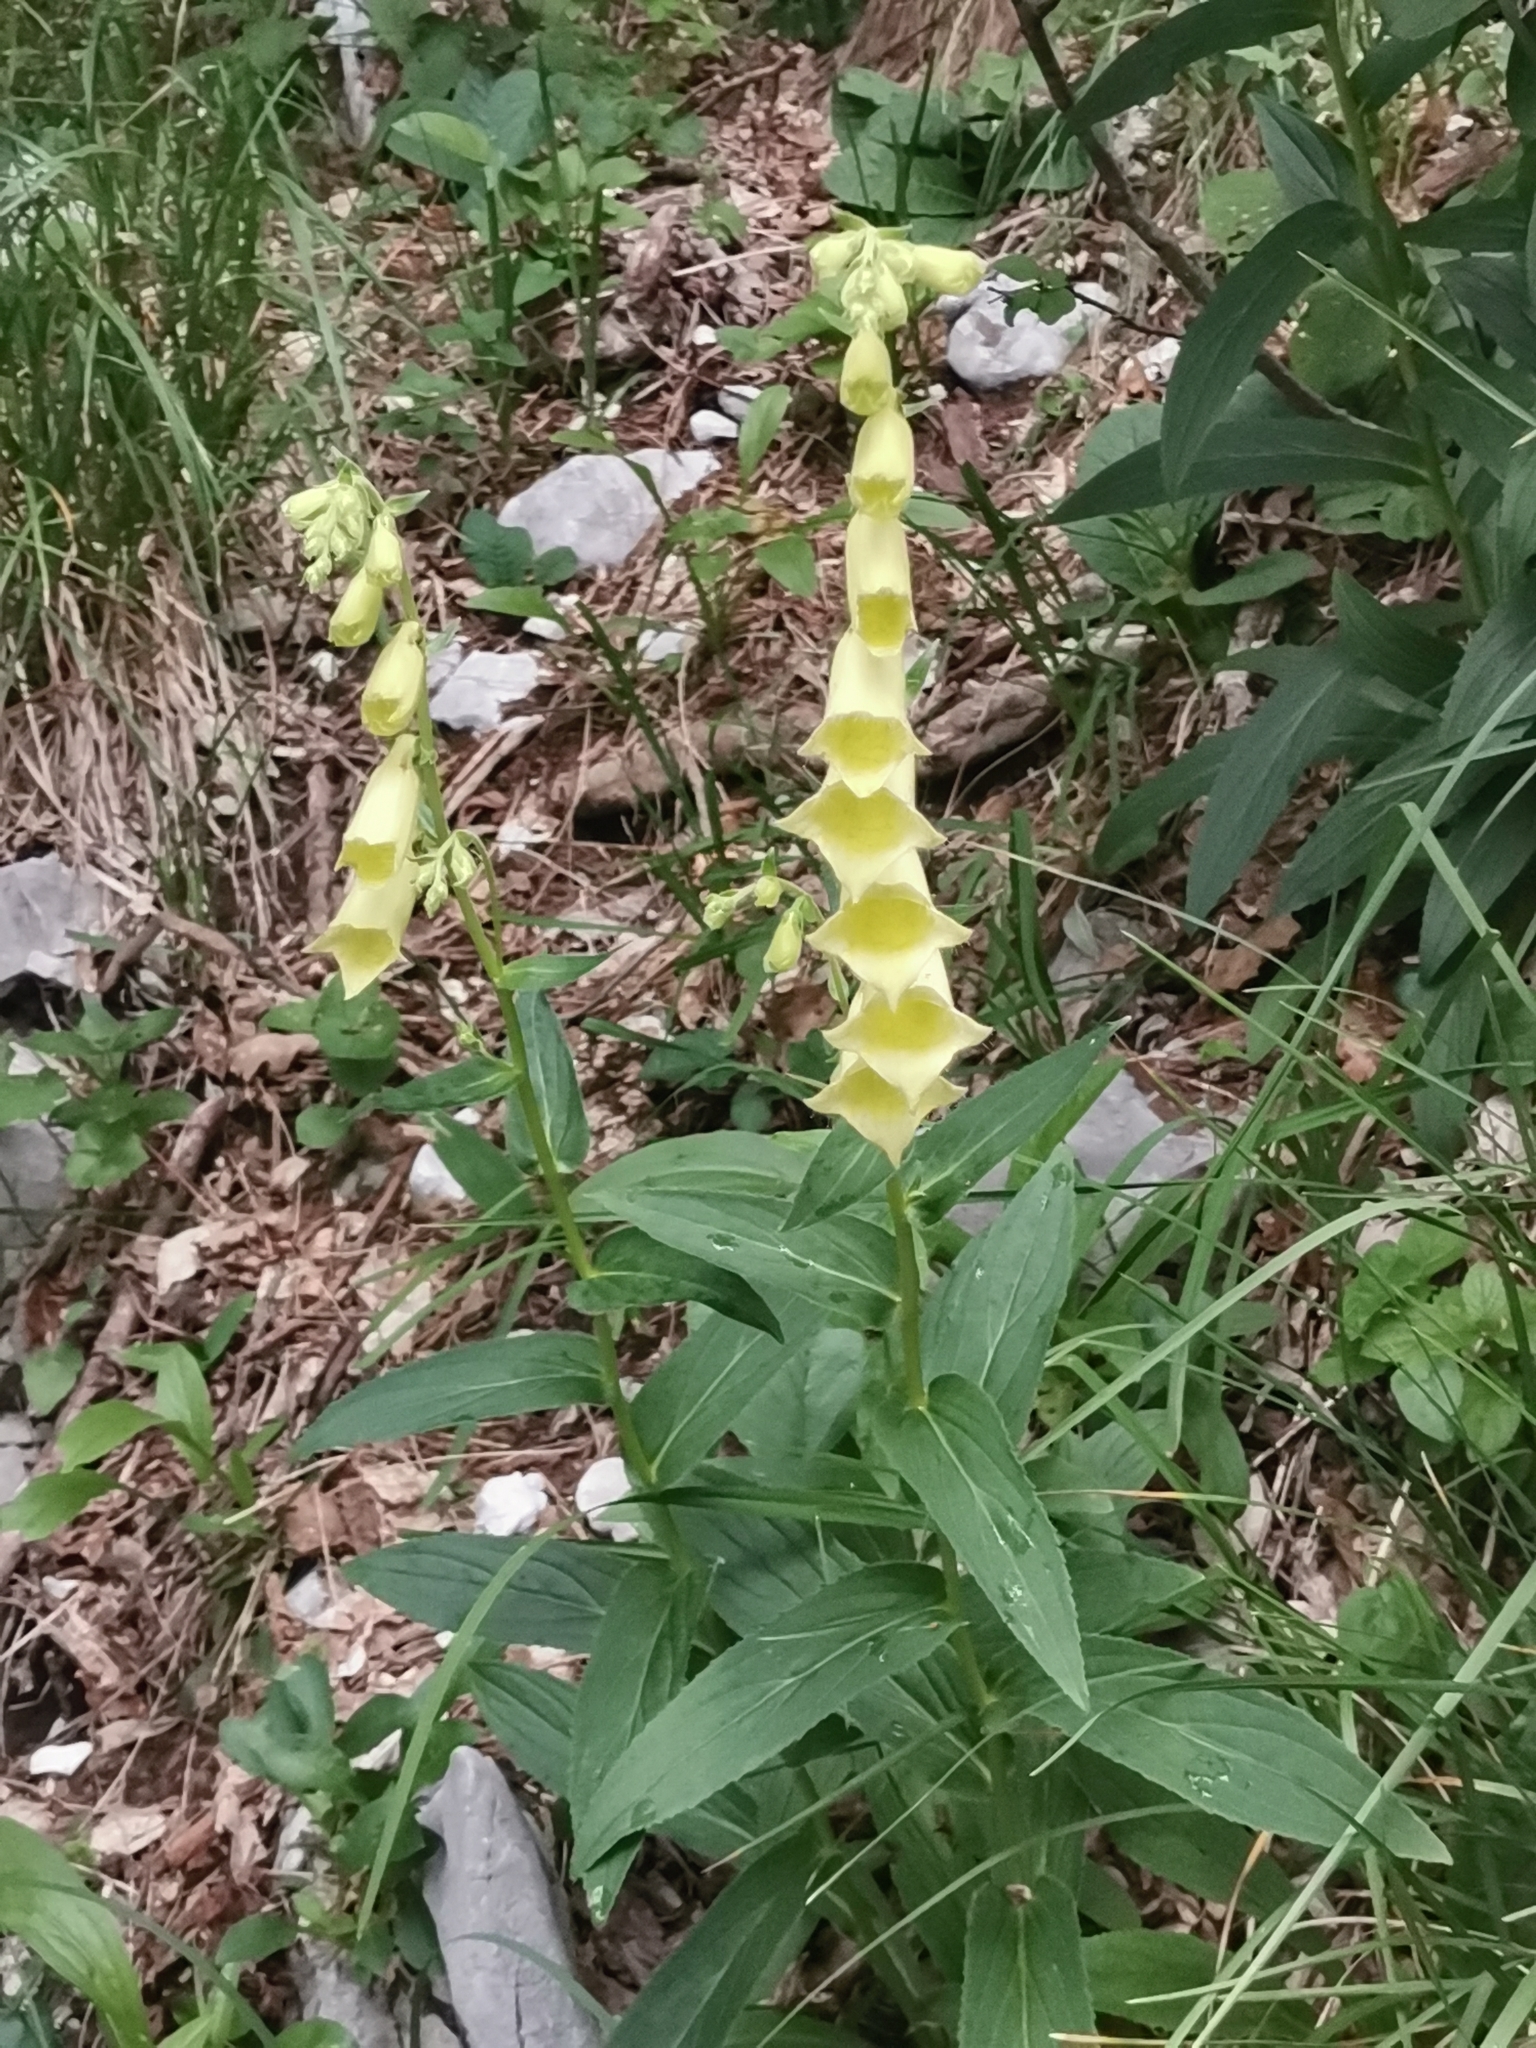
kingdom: Plantae
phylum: Tracheophyta
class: Magnoliopsida
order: Lamiales
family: Plantaginaceae
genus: Digitalis
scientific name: Digitalis grandiflora
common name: Yellow foxglove
